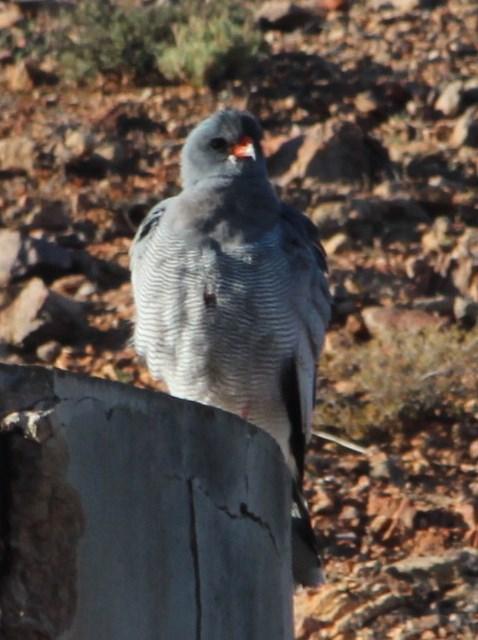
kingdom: Animalia
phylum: Chordata
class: Aves
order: Accipitriformes
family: Accipitridae
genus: Melierax
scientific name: Melierax canorus
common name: Pale chanting-goshawk
